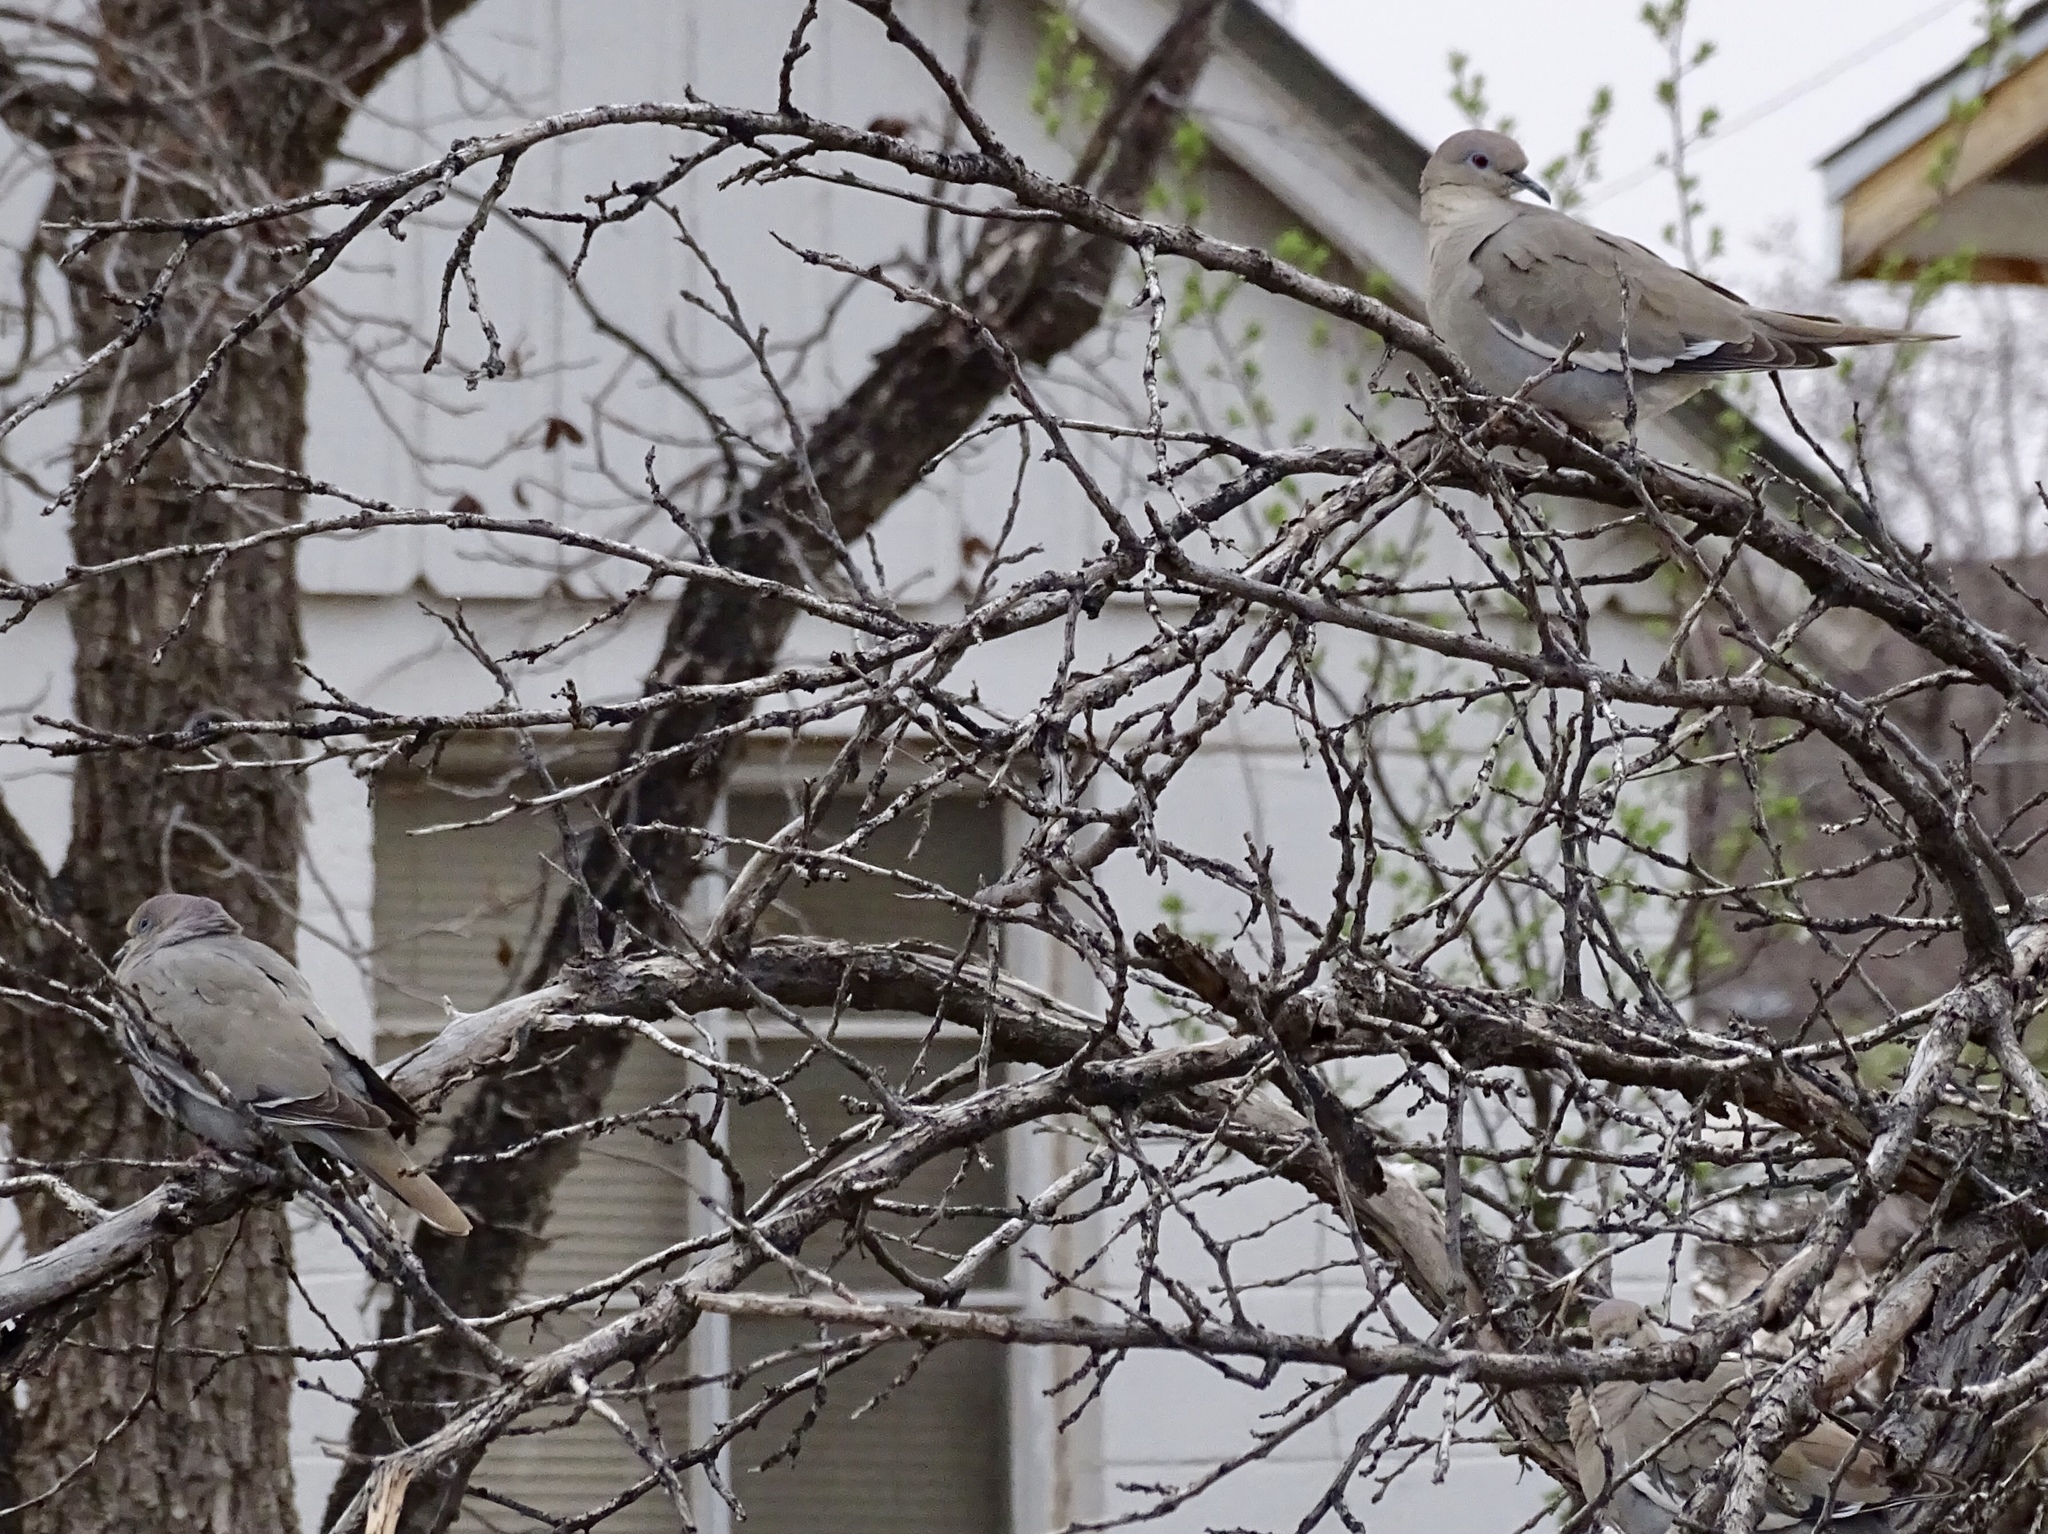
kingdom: Animalia
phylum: Chordata
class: Aves
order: Columbiformes
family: Columbidae
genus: Zenaida
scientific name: Zenaida asiatica
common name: White-winged dove
